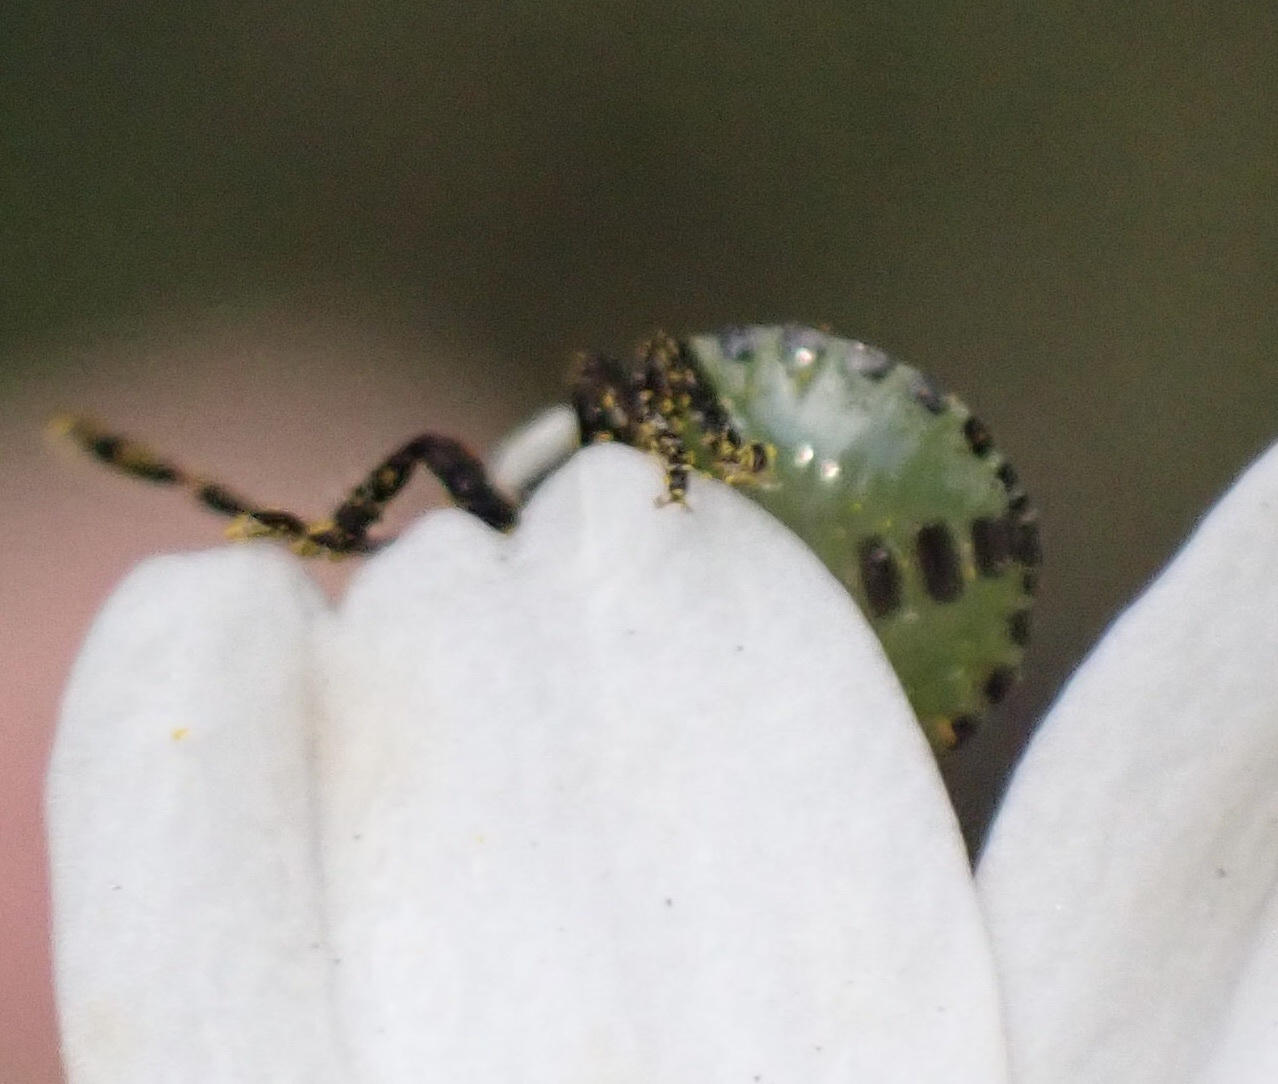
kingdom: Animalia
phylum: Arthropoda
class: Insecta
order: Hemiptera
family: Pentatomidae
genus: Palomena
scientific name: Palomena prasina
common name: Green shieldbug
